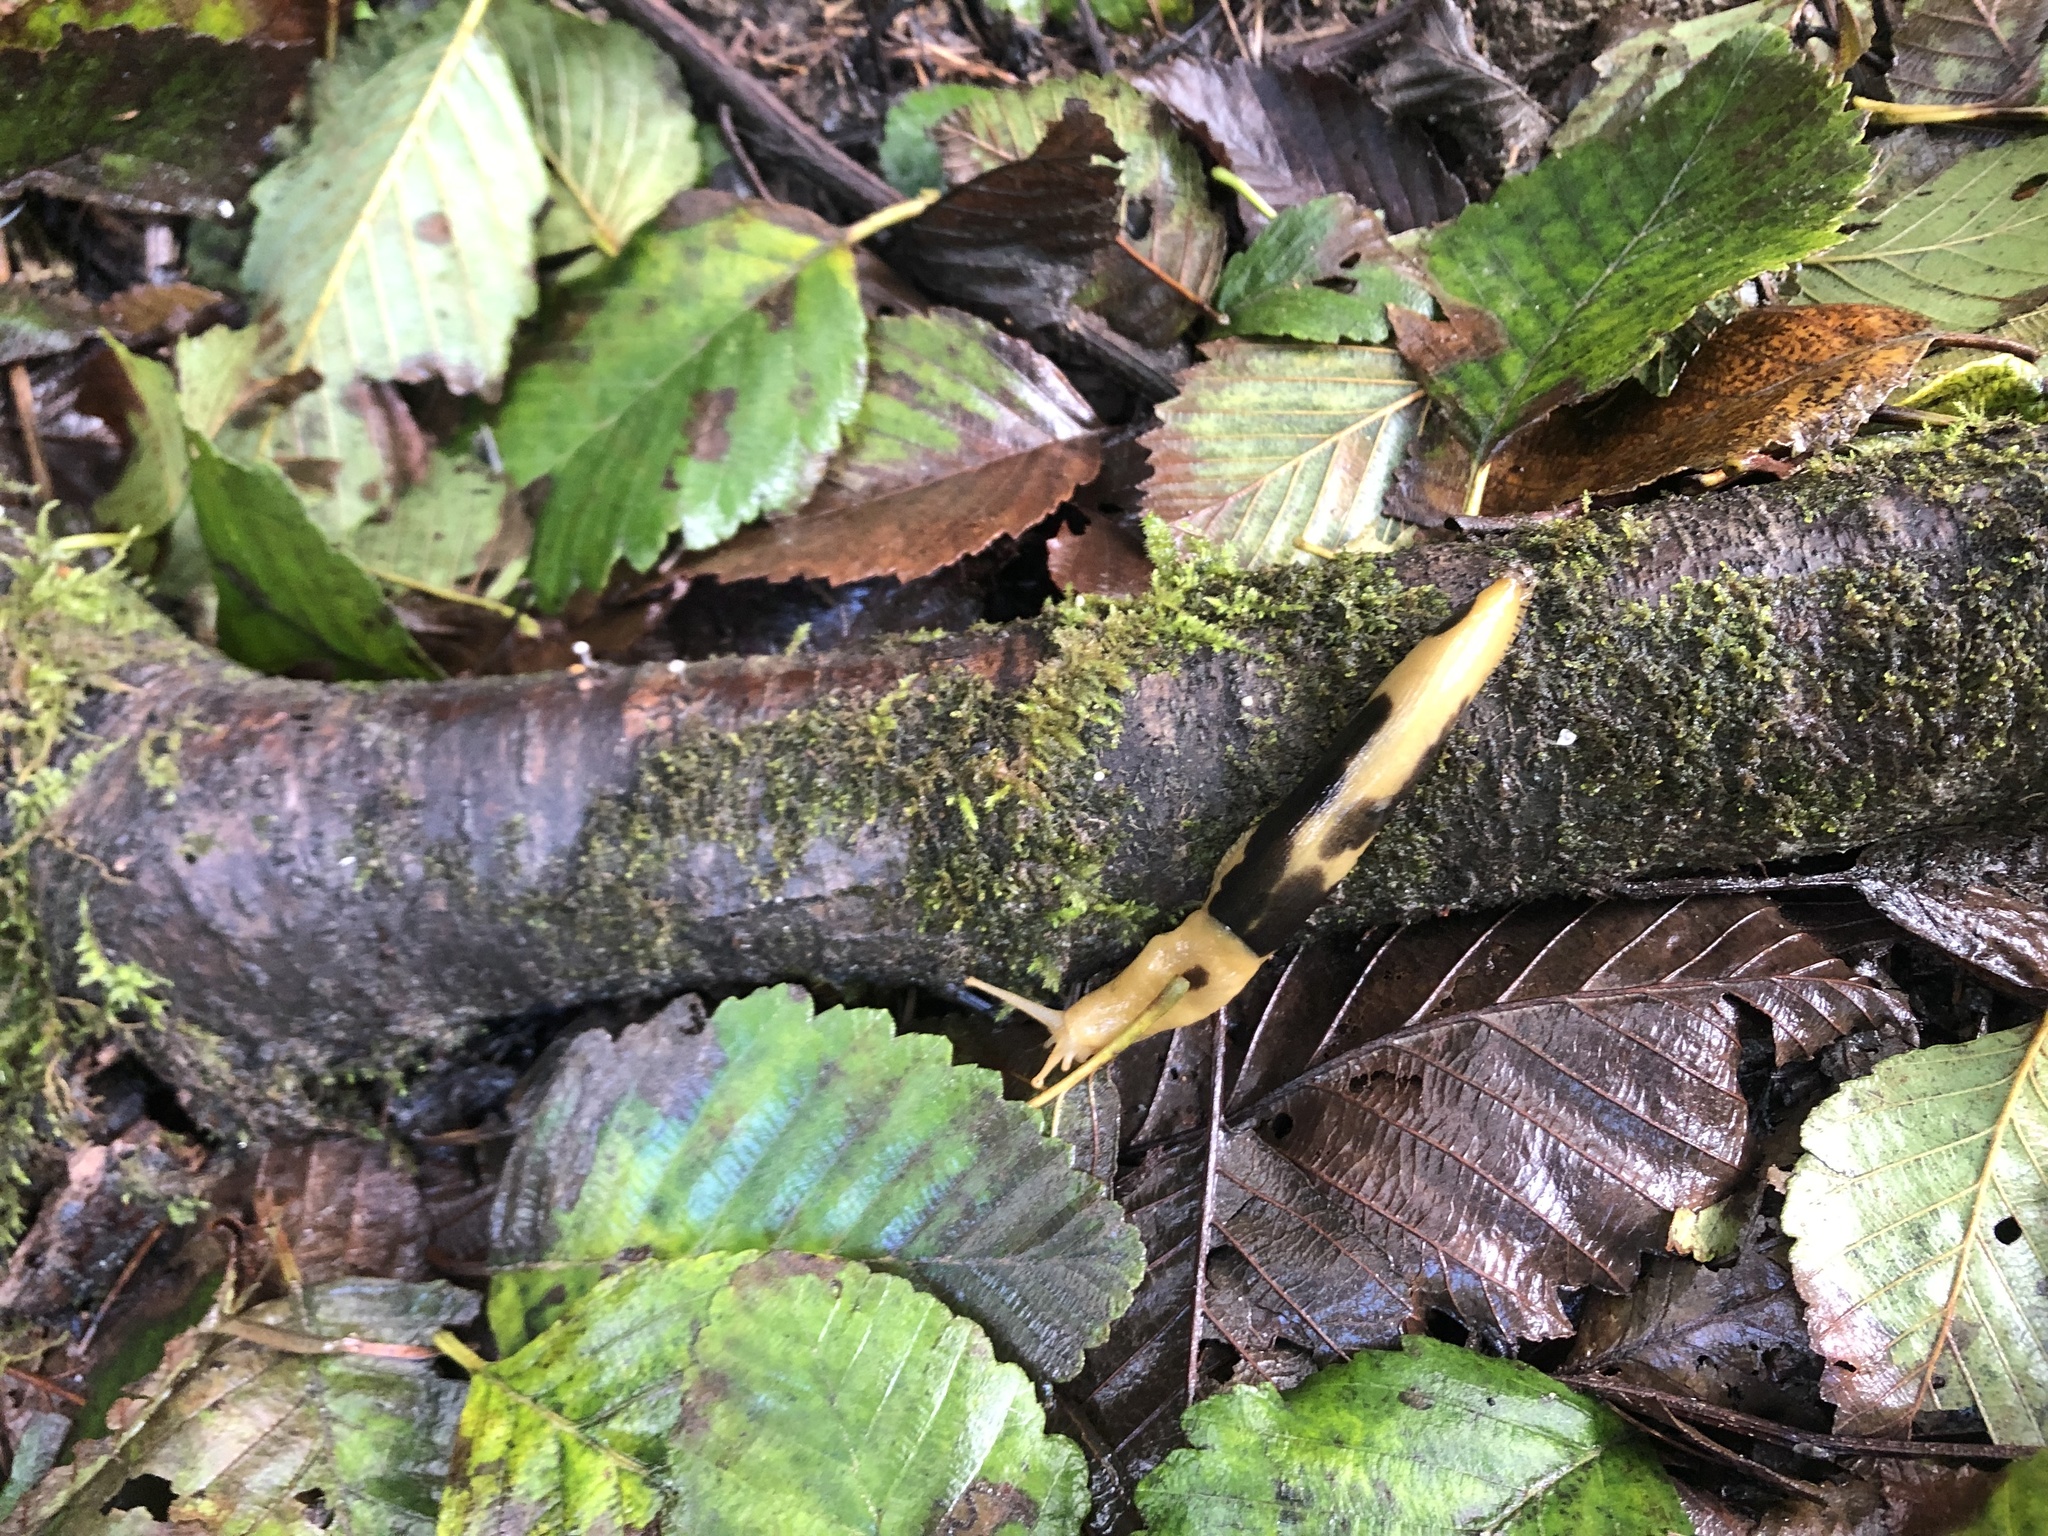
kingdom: Animalia
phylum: Mollusca
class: Gastropoda
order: Stylommatophora
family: Ariolimacidae
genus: Ariolimax
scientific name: Ariolimax columbianus
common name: Pacific banana slug
